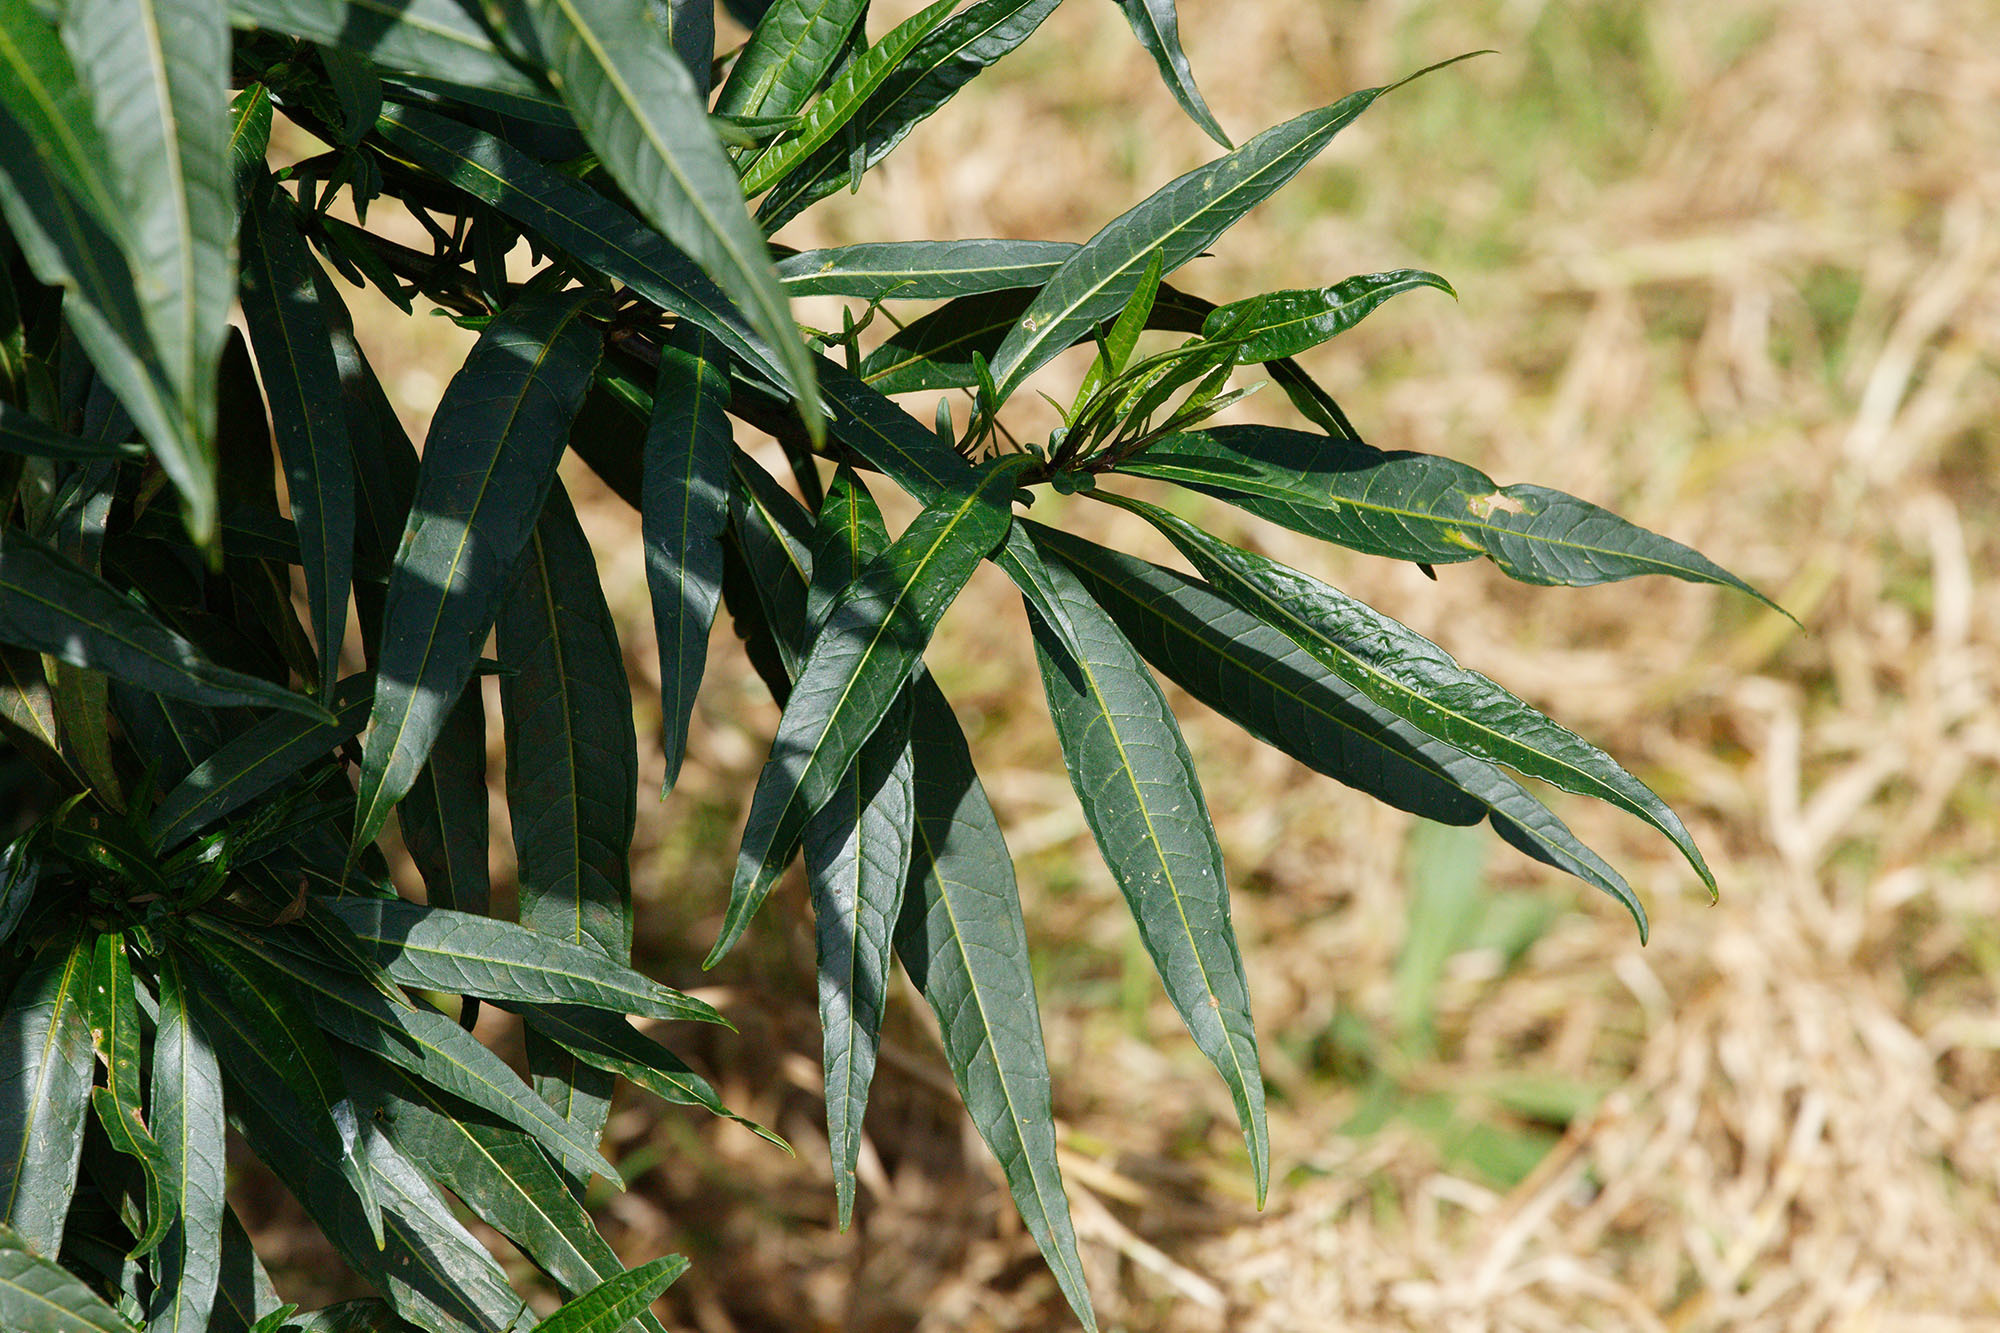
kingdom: Plantae
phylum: Tracheophyta
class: Magnoliopsida
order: Solanales
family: Solanaceae
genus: Solanum
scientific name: Solanum
